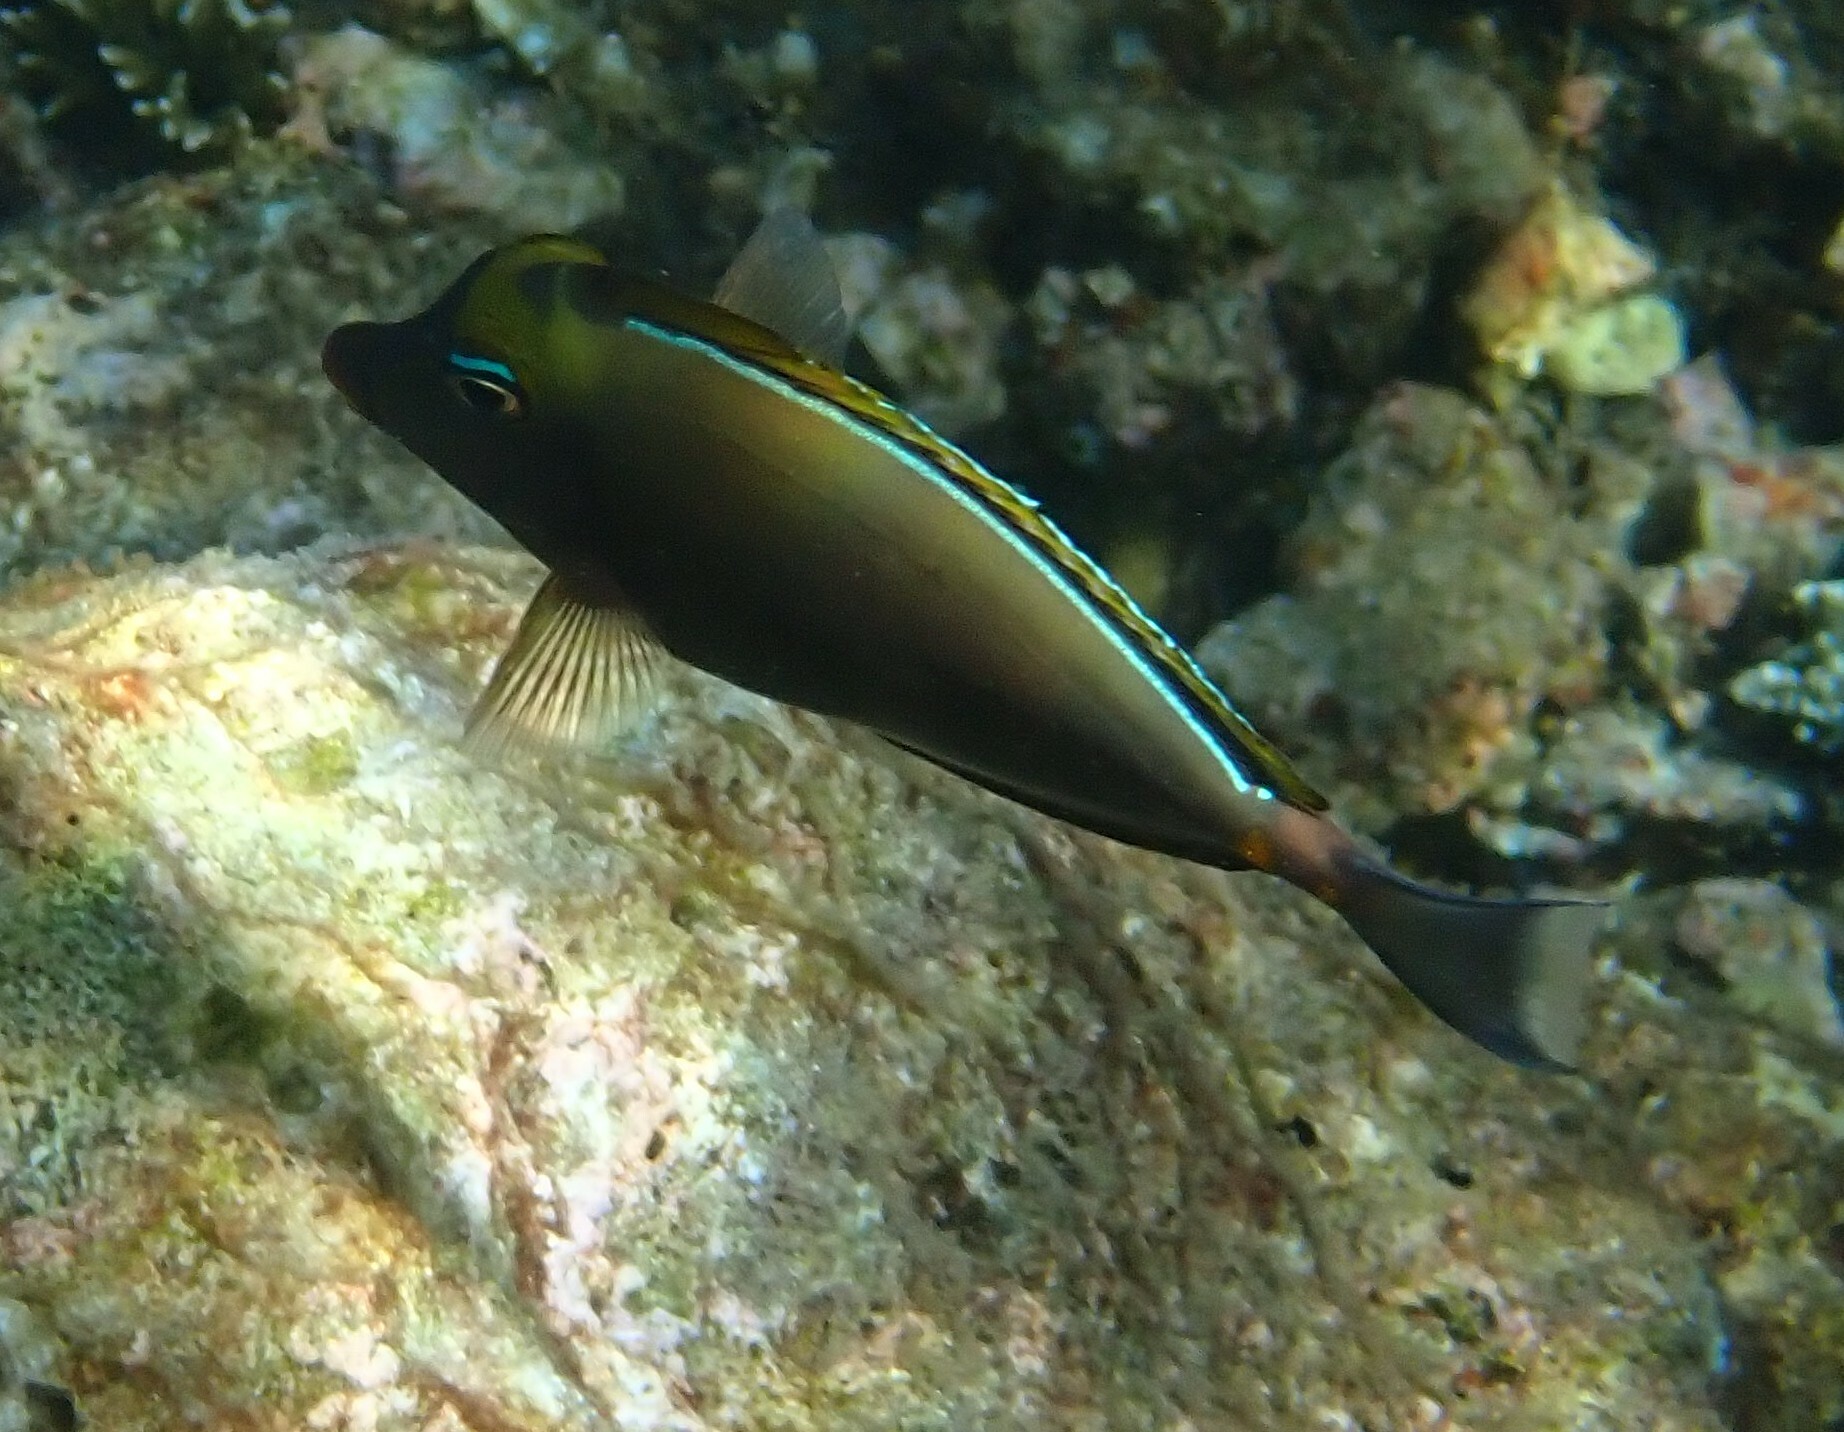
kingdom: Animalia
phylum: Chordata
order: Perciformes
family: Acanthuridae
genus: Naso
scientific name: Naso elegans
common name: Orangespine unicornfish
